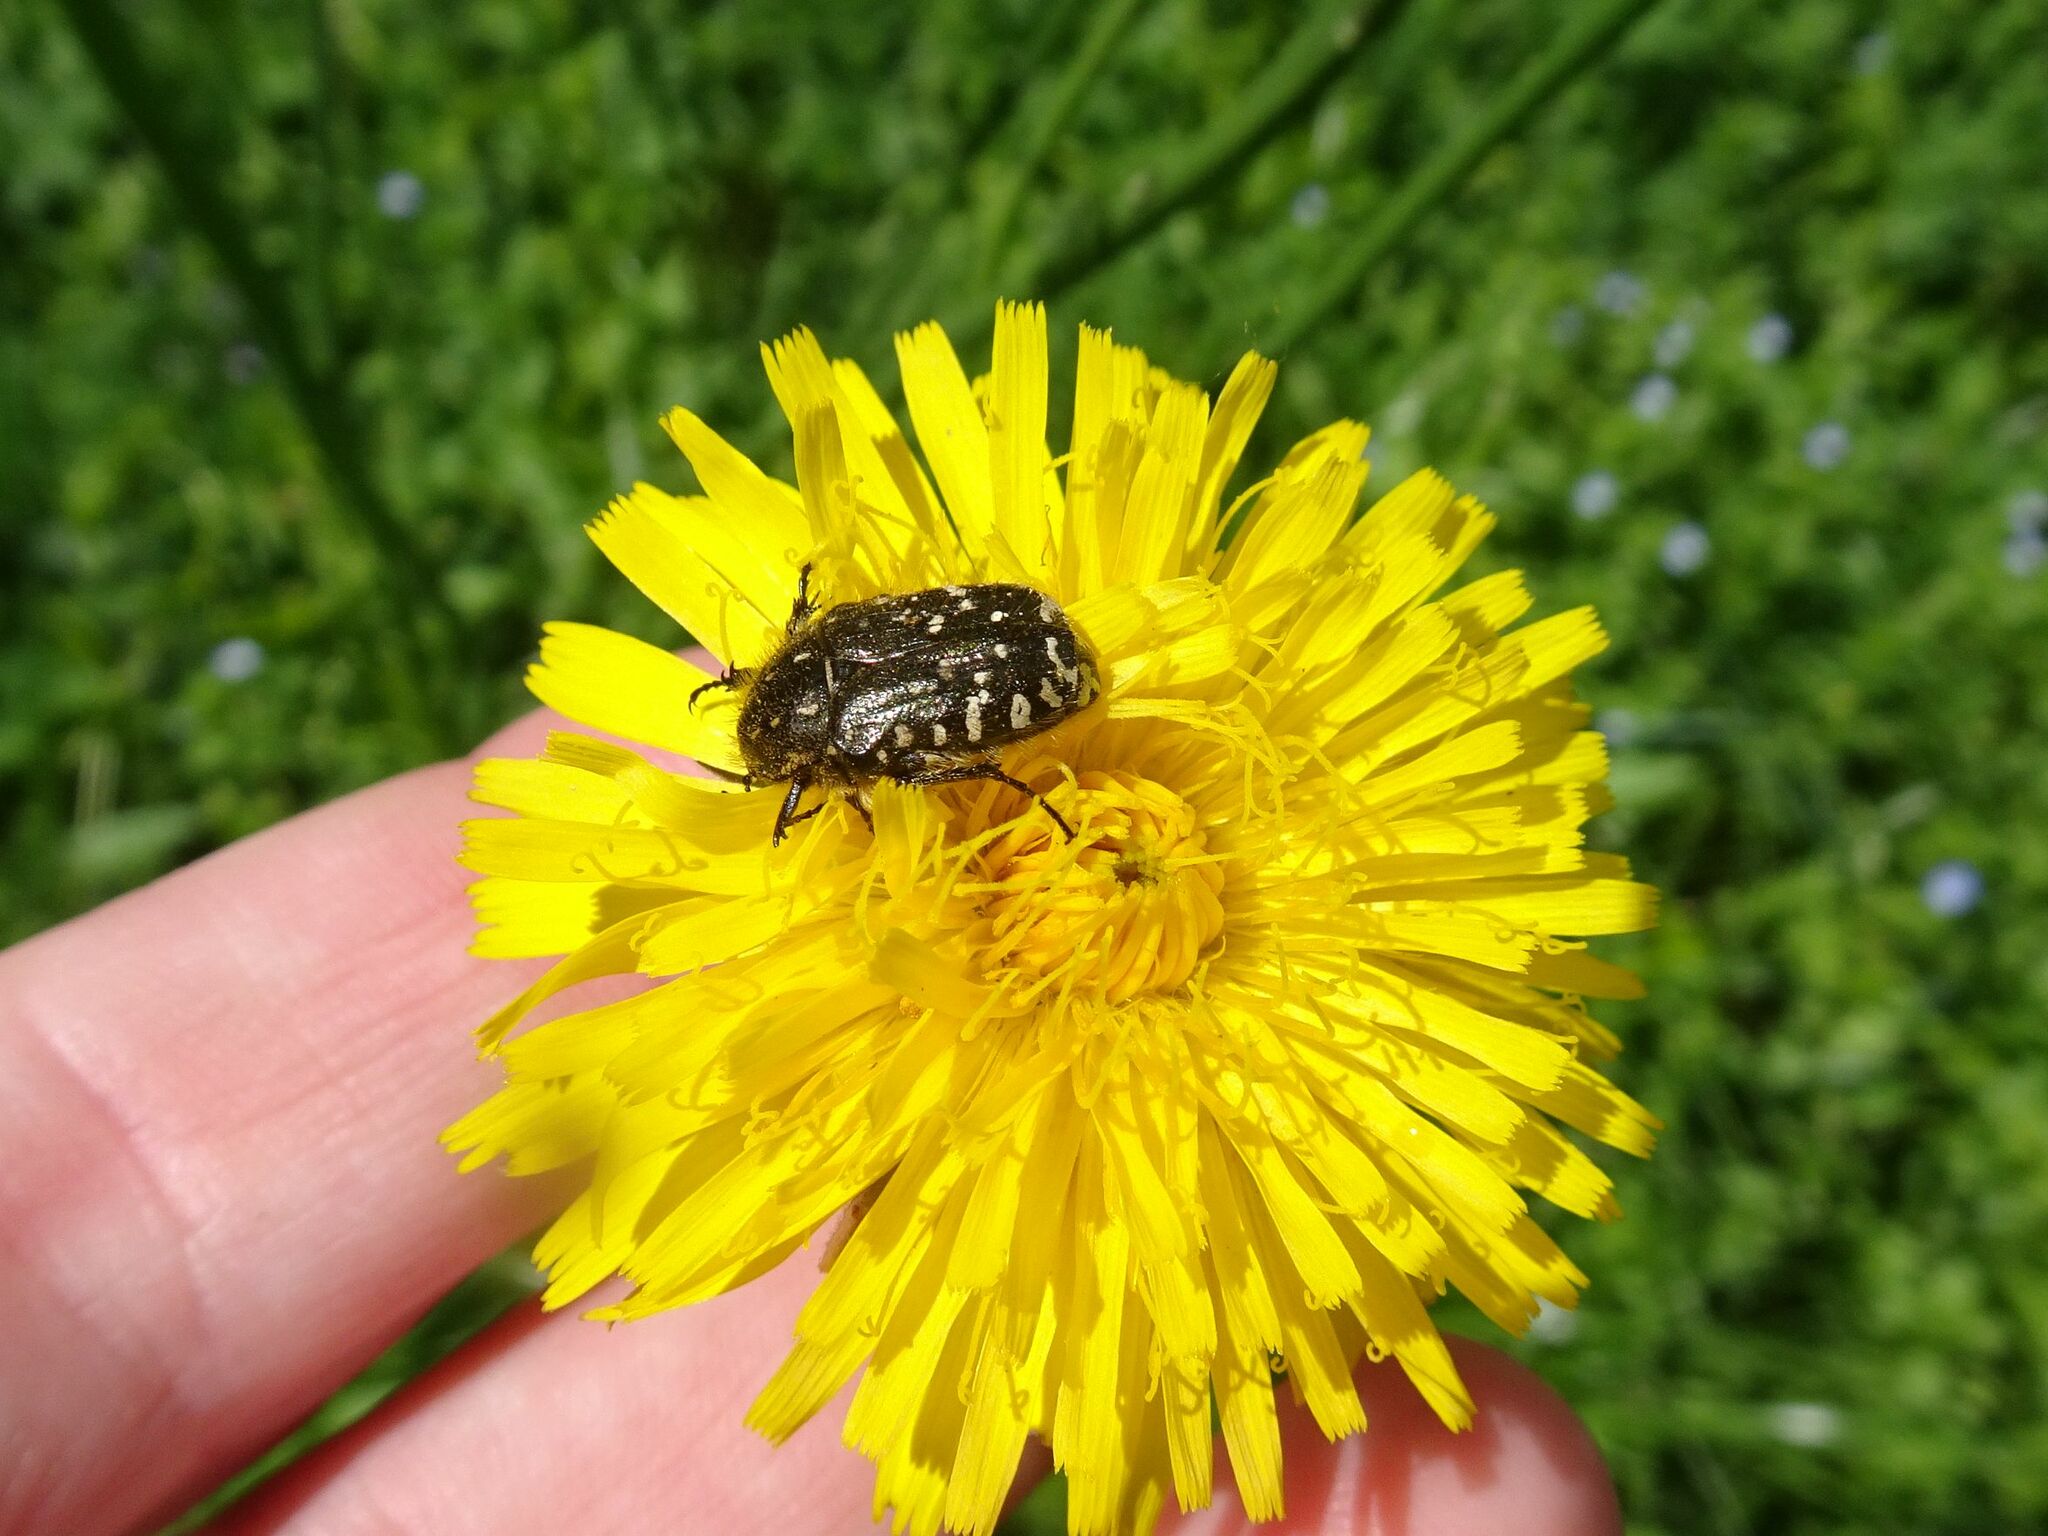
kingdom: Animalia
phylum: Arthropoda
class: Insecta
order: Coleoptera
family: Scarabaeidae
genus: Oxythyrea
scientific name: Oxythyrea funesta
